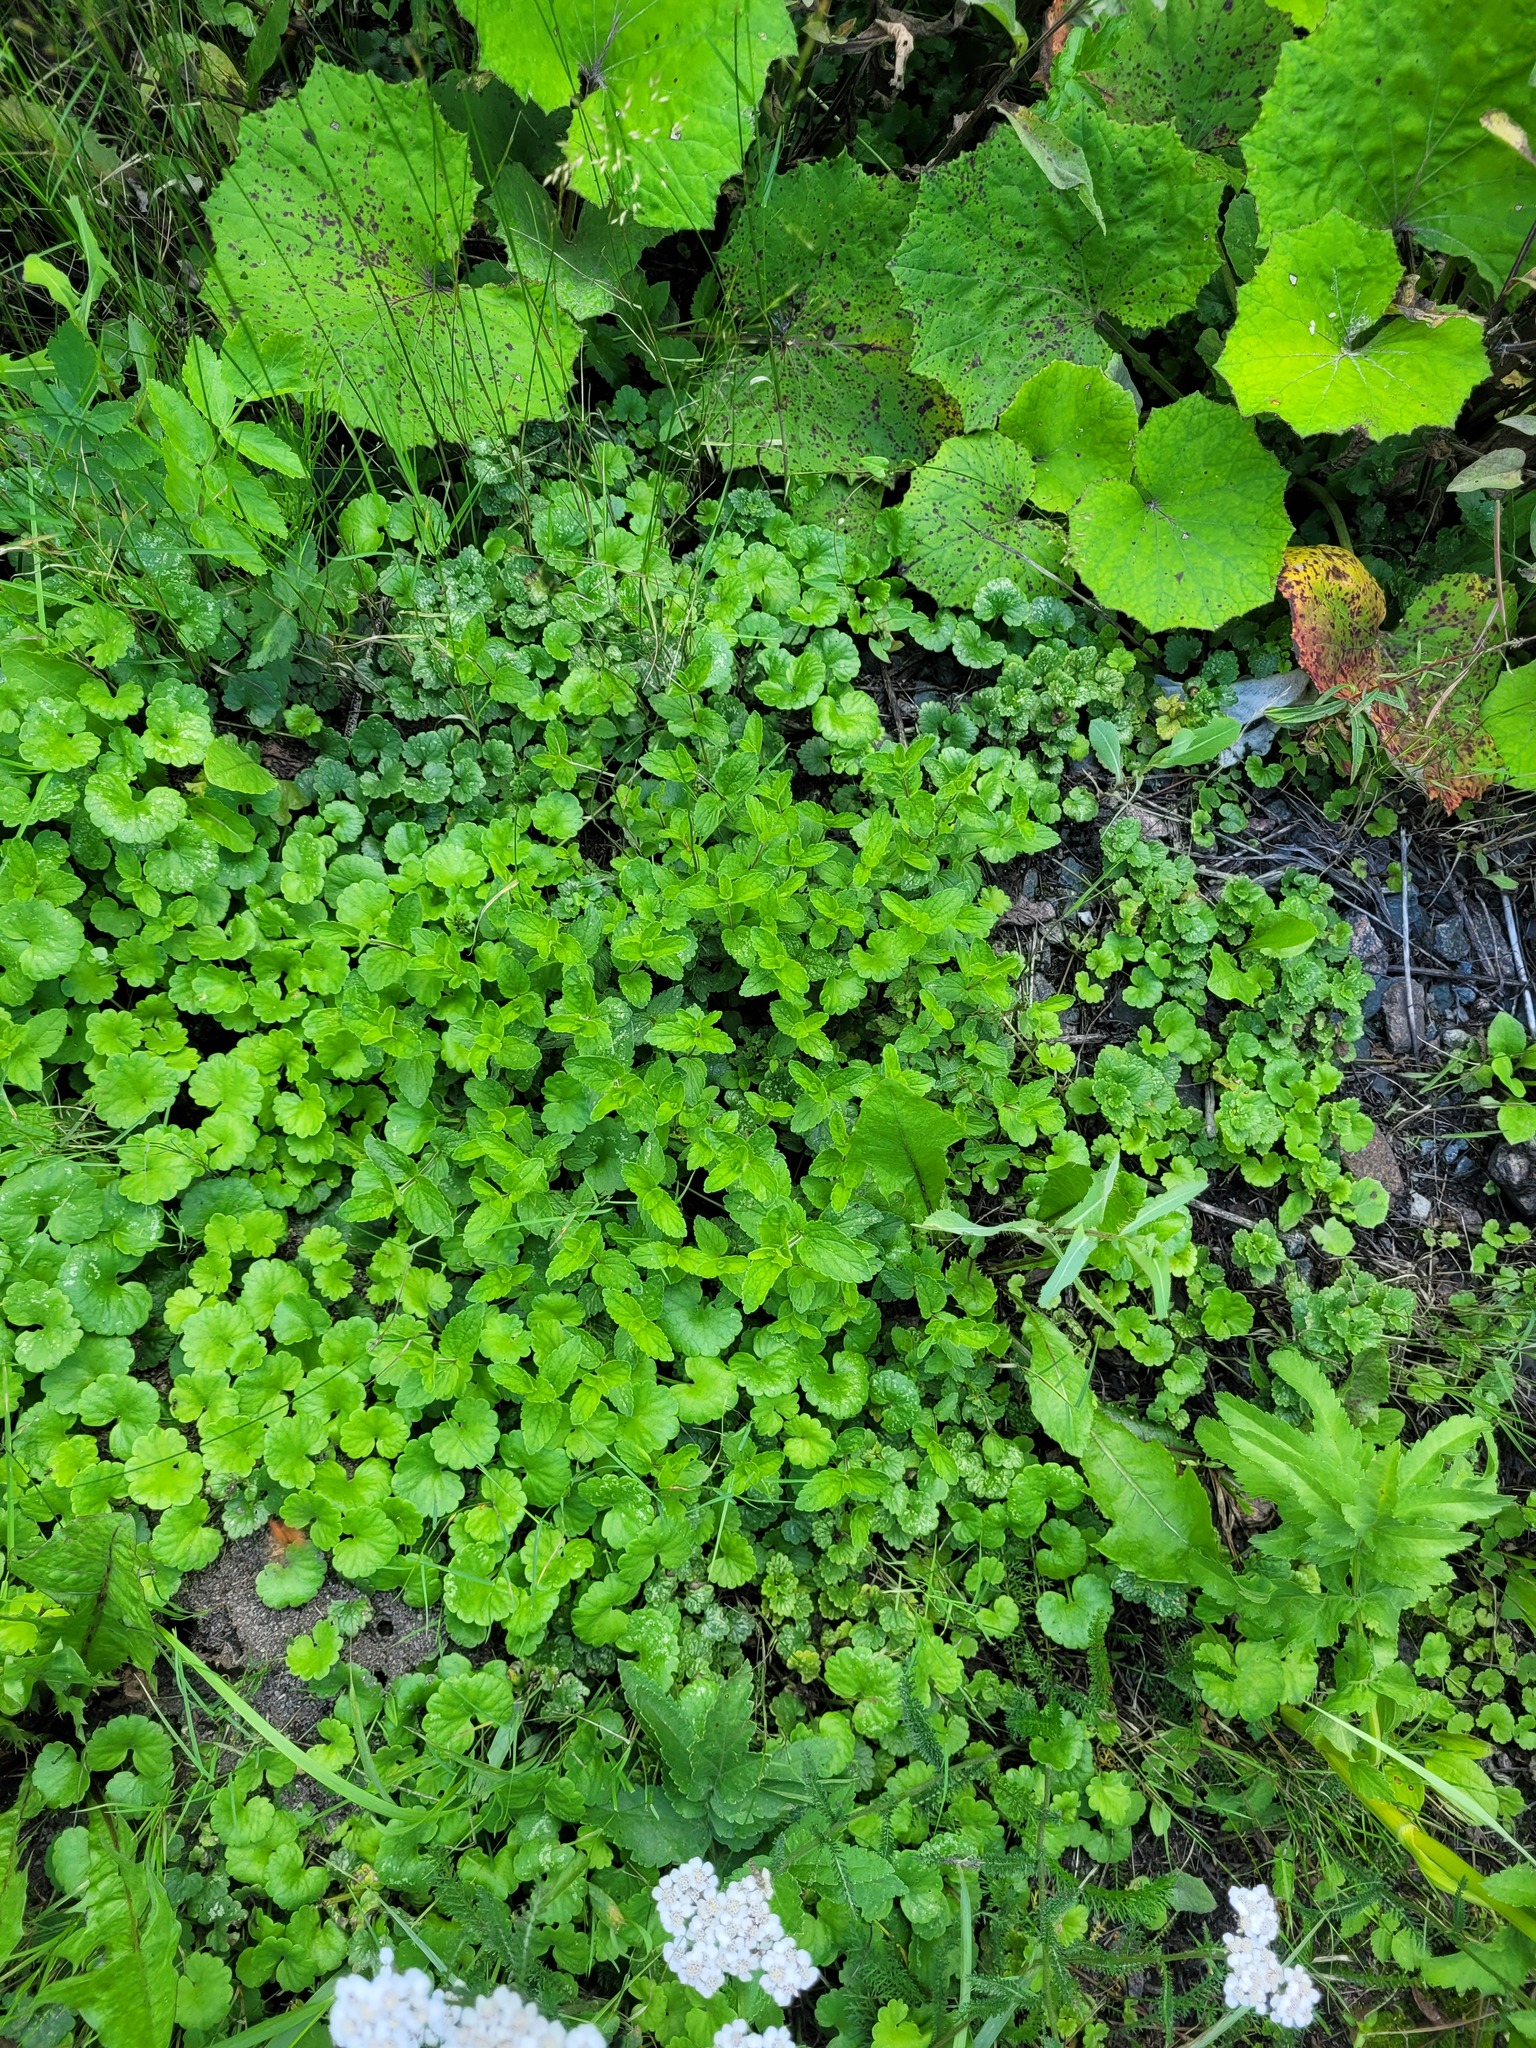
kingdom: Plantae
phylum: Tracheophyta
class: Magnoliopsida
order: Lamiales
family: Plantaginaceae
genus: Veronica
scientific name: Veronica chamaedrys
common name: Germander speedwell
